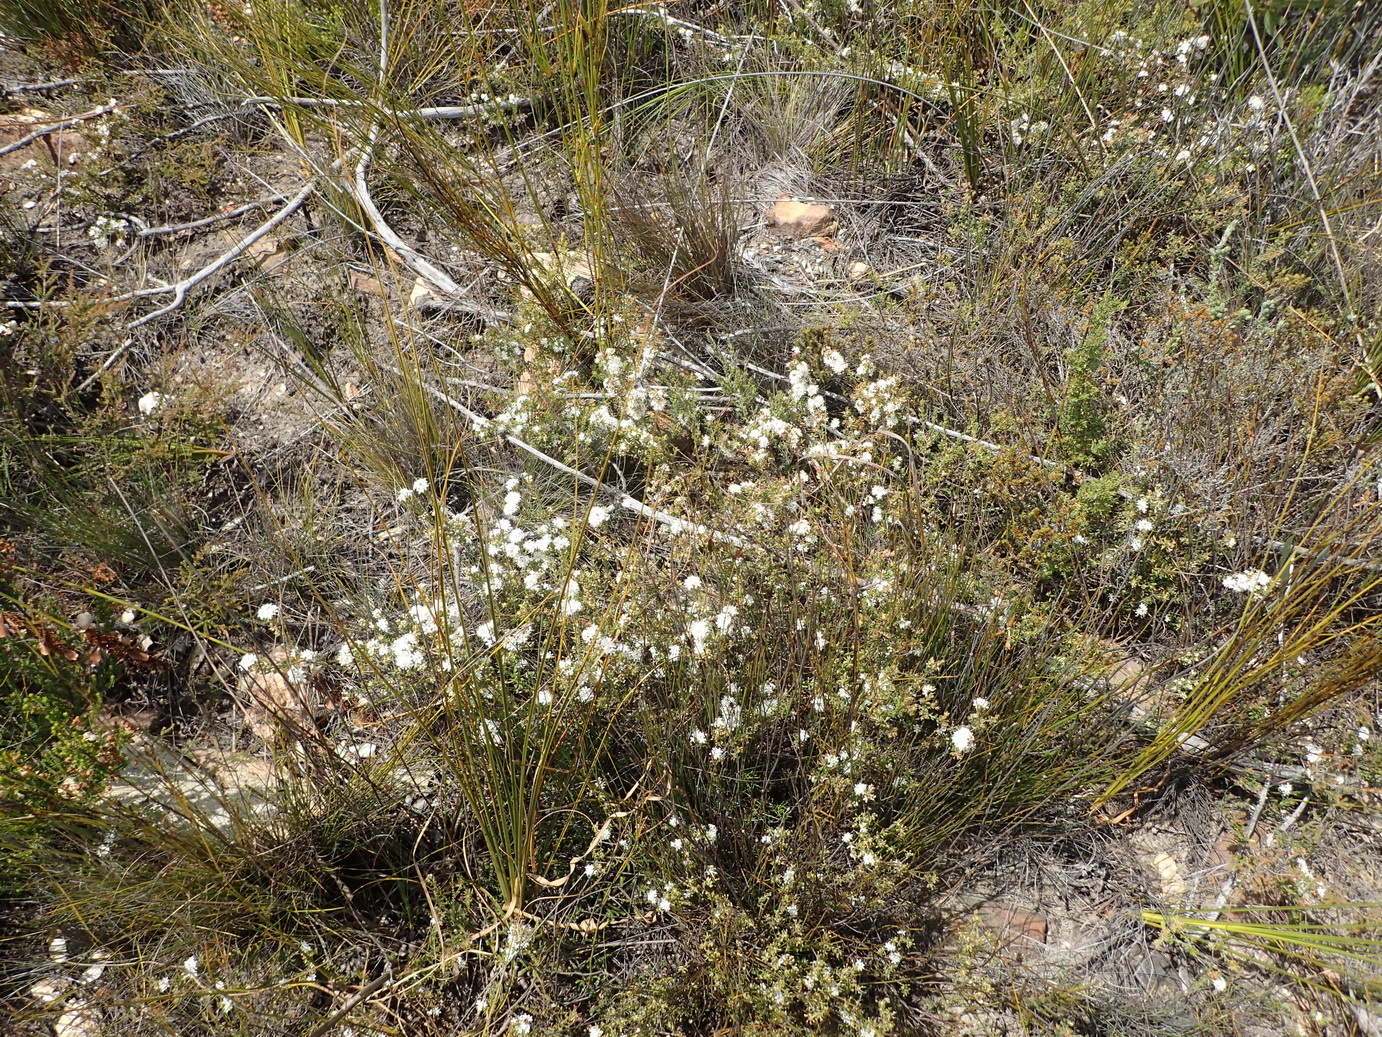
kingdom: Plantae
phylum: Tracheophyta
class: Magnoliopsida
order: Sapindales
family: Rutaceae
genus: Agathosma
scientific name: Agathosma mundtii
